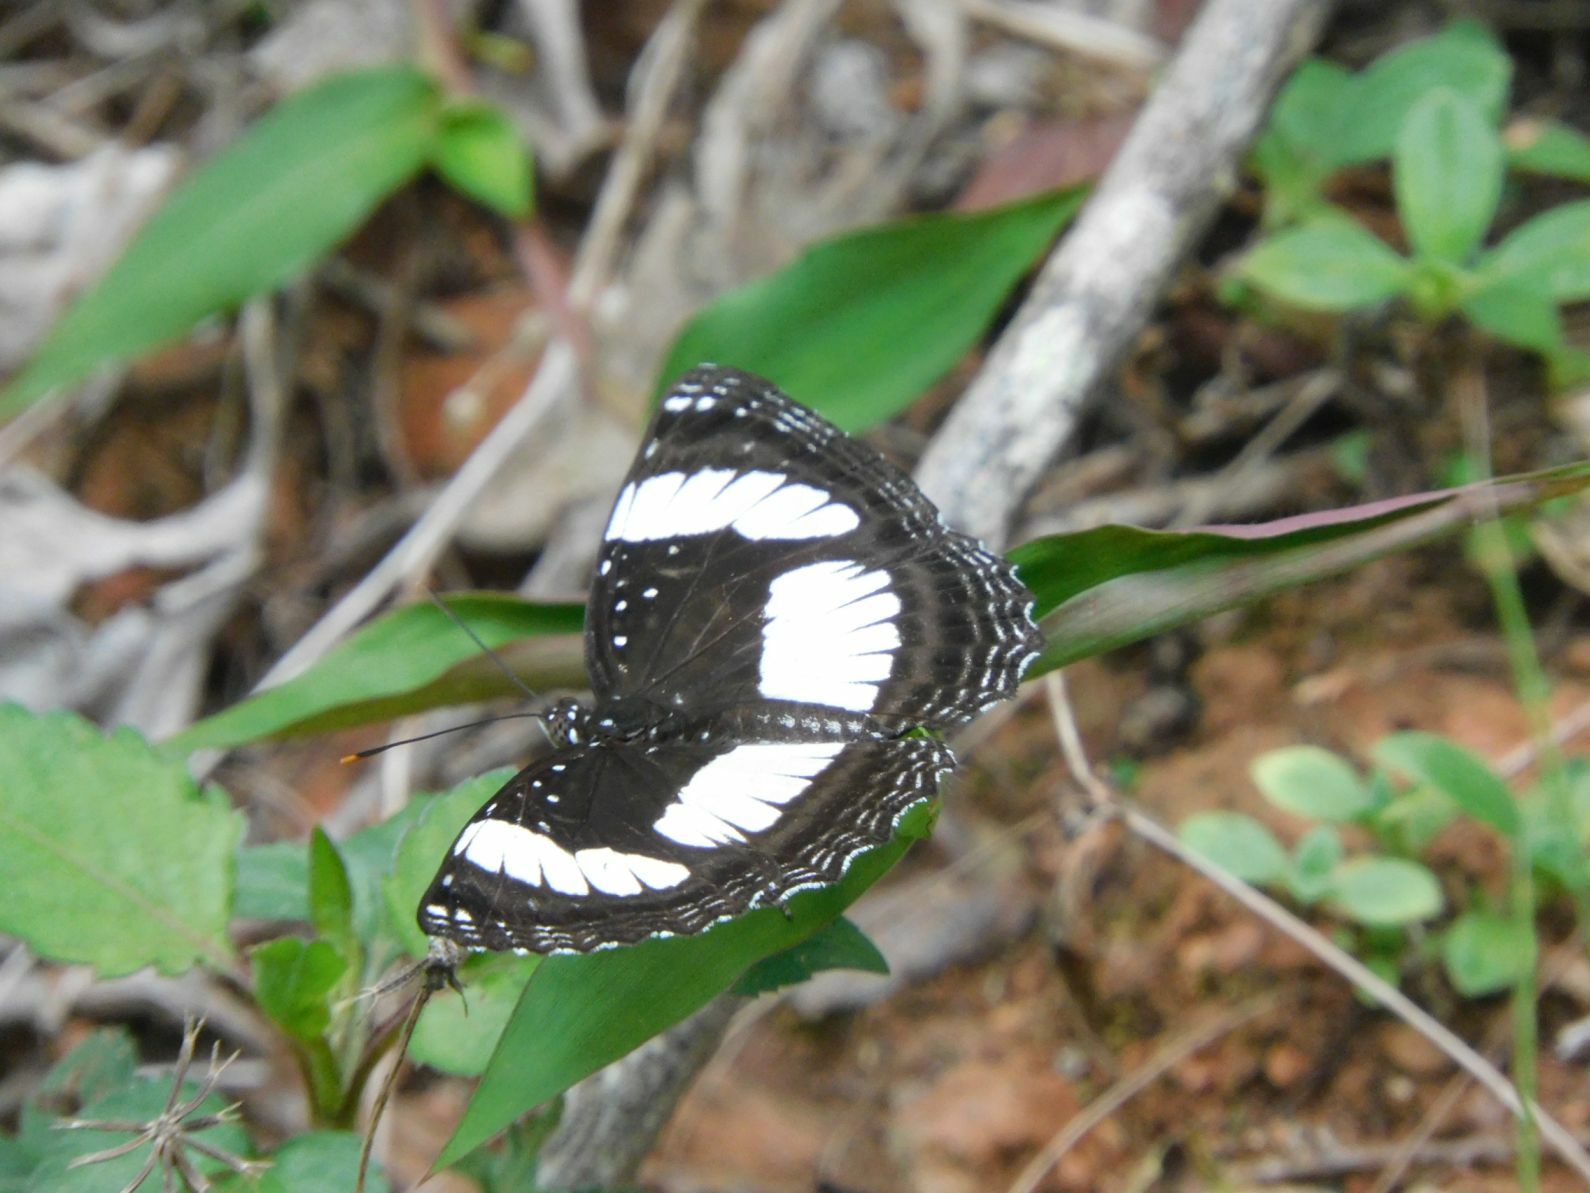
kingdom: Animalia
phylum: Arthropoda
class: Insecta
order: Lepidoptera
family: Nymphalidae
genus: Neptis
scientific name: Neptis kiriakoffi
